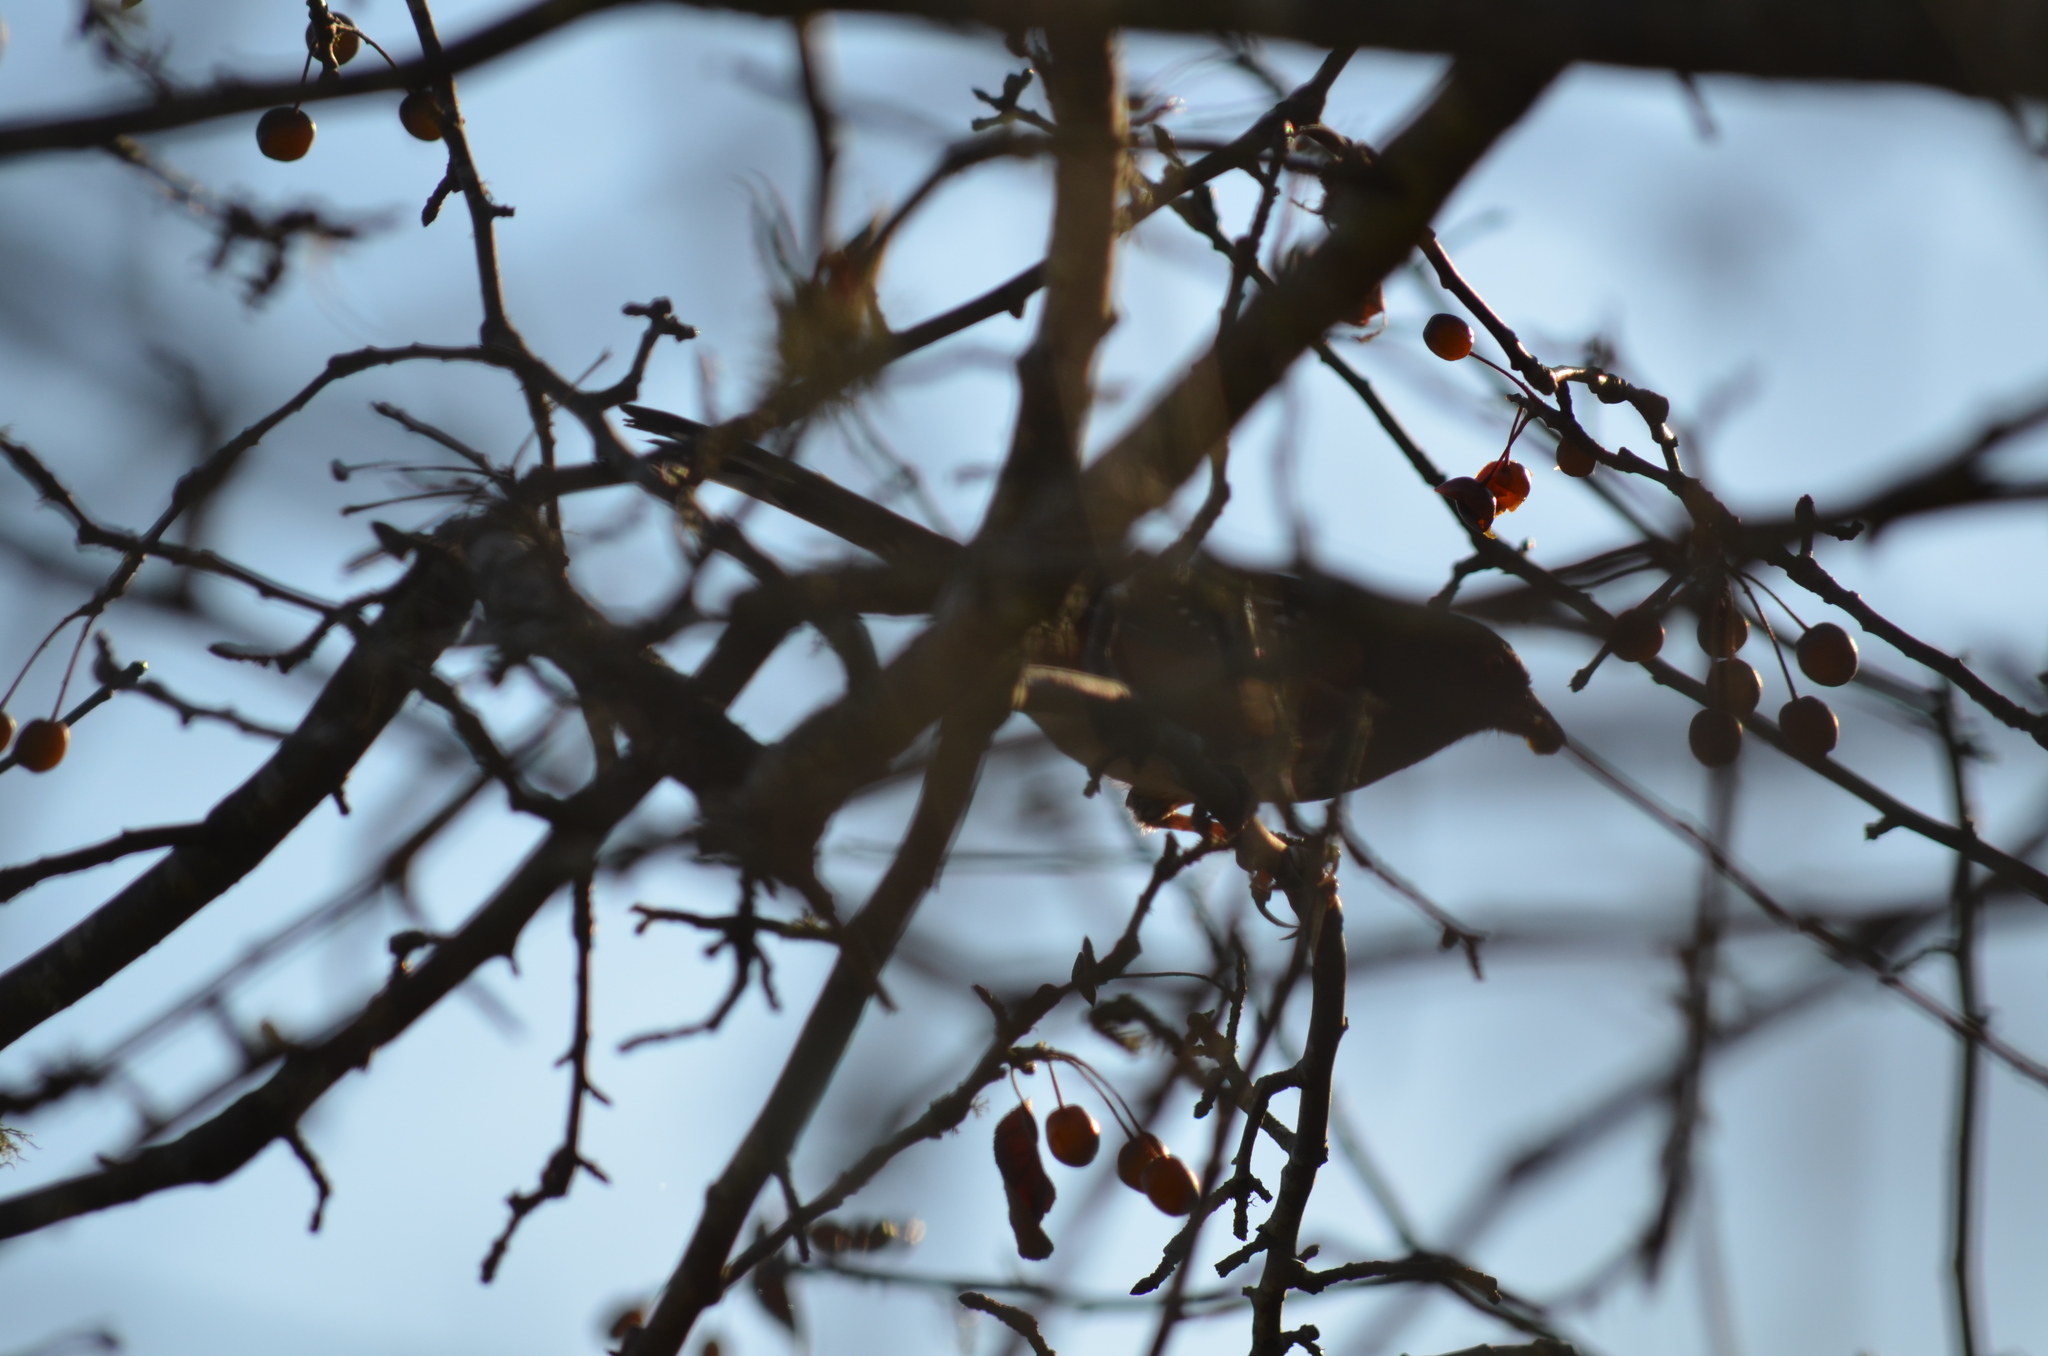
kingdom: Animalia
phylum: Chordata
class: Aves
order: Passeriformes
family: Passerellidae
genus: Pipilo
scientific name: Pipilo maculatus
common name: Spotted towhee
